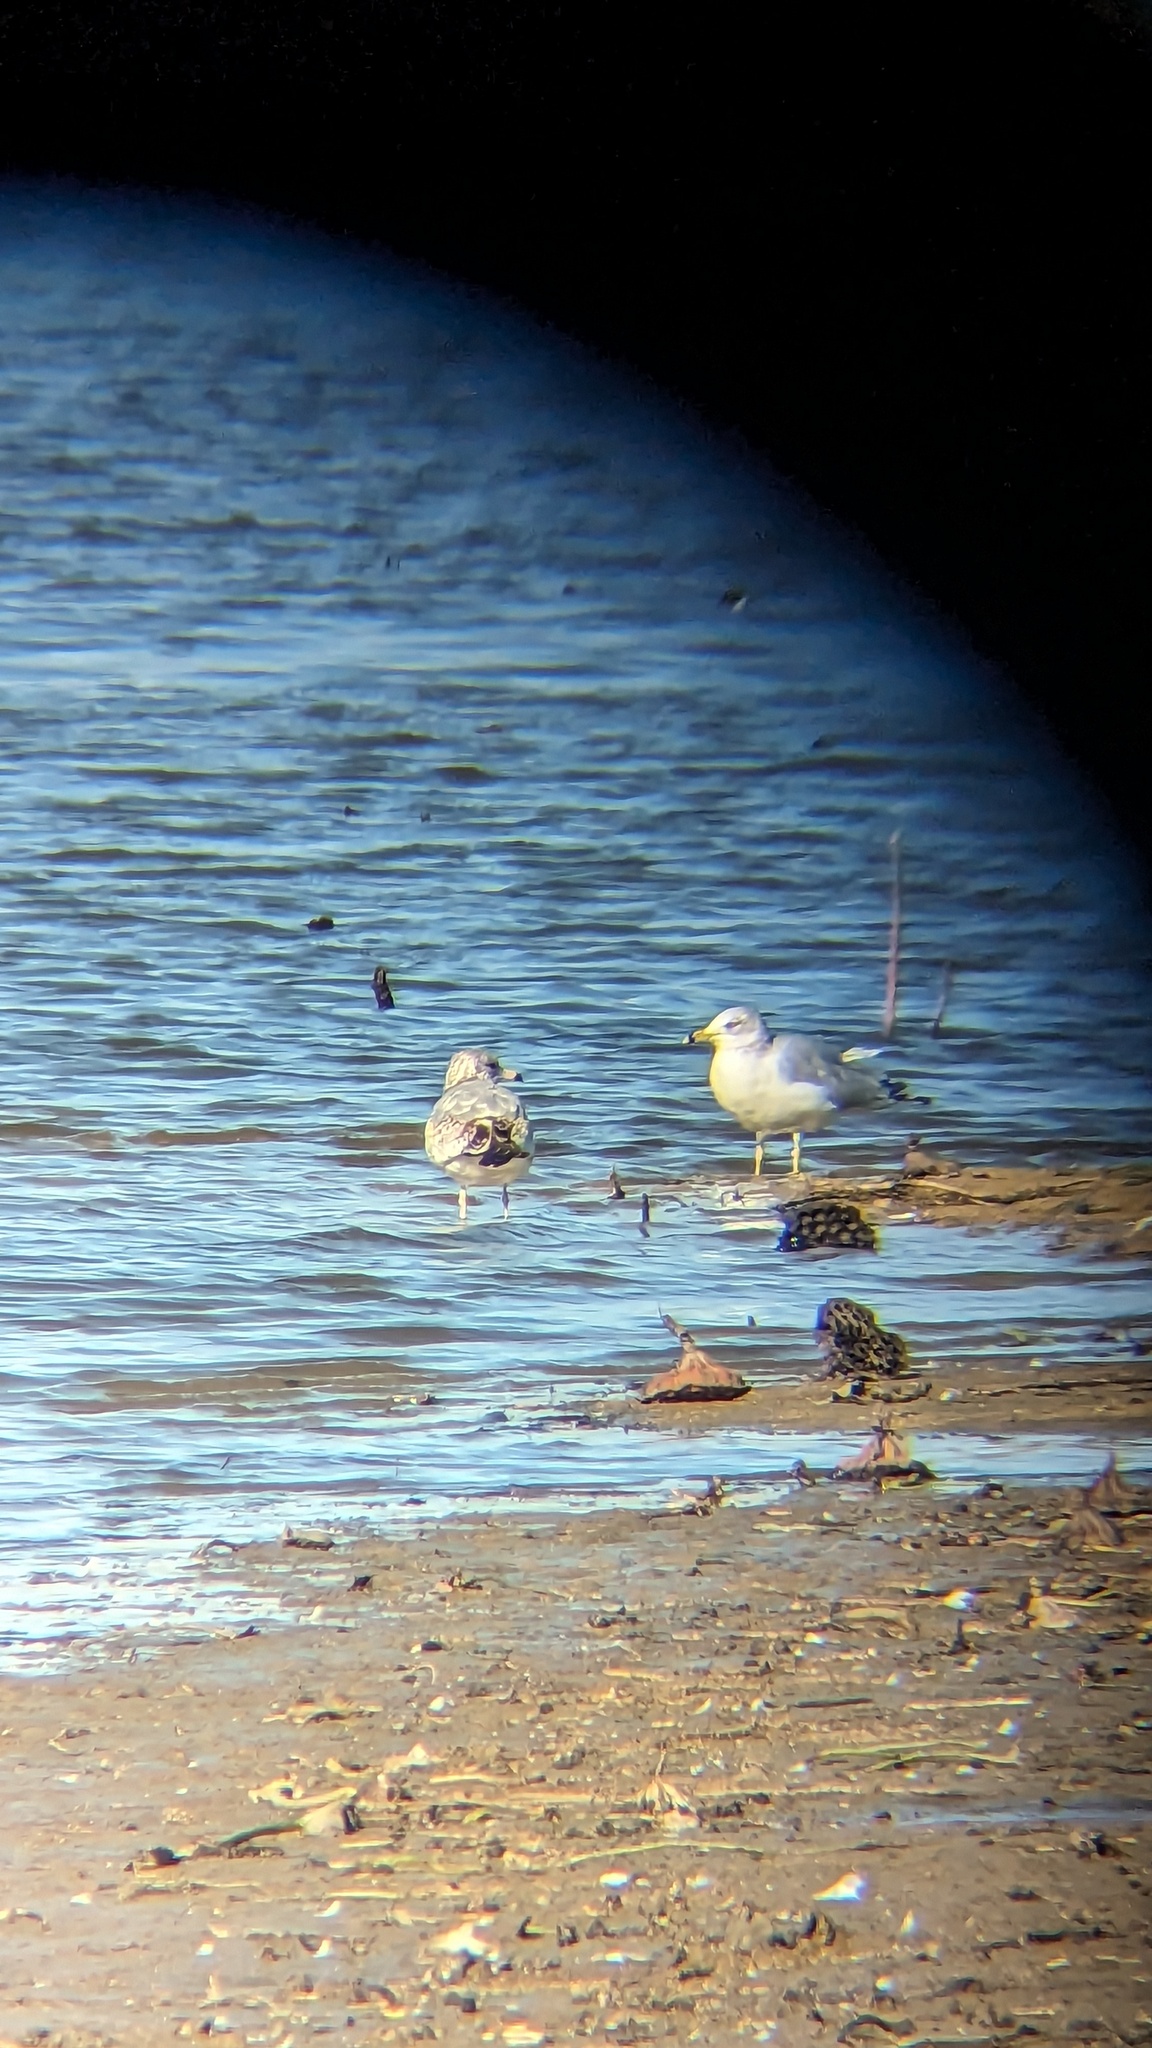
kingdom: Animalia
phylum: Chordata
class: Aves
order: Charadriiformes
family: Laridae
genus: Larus
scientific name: Larus delawarensis
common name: Ring-billed gull
